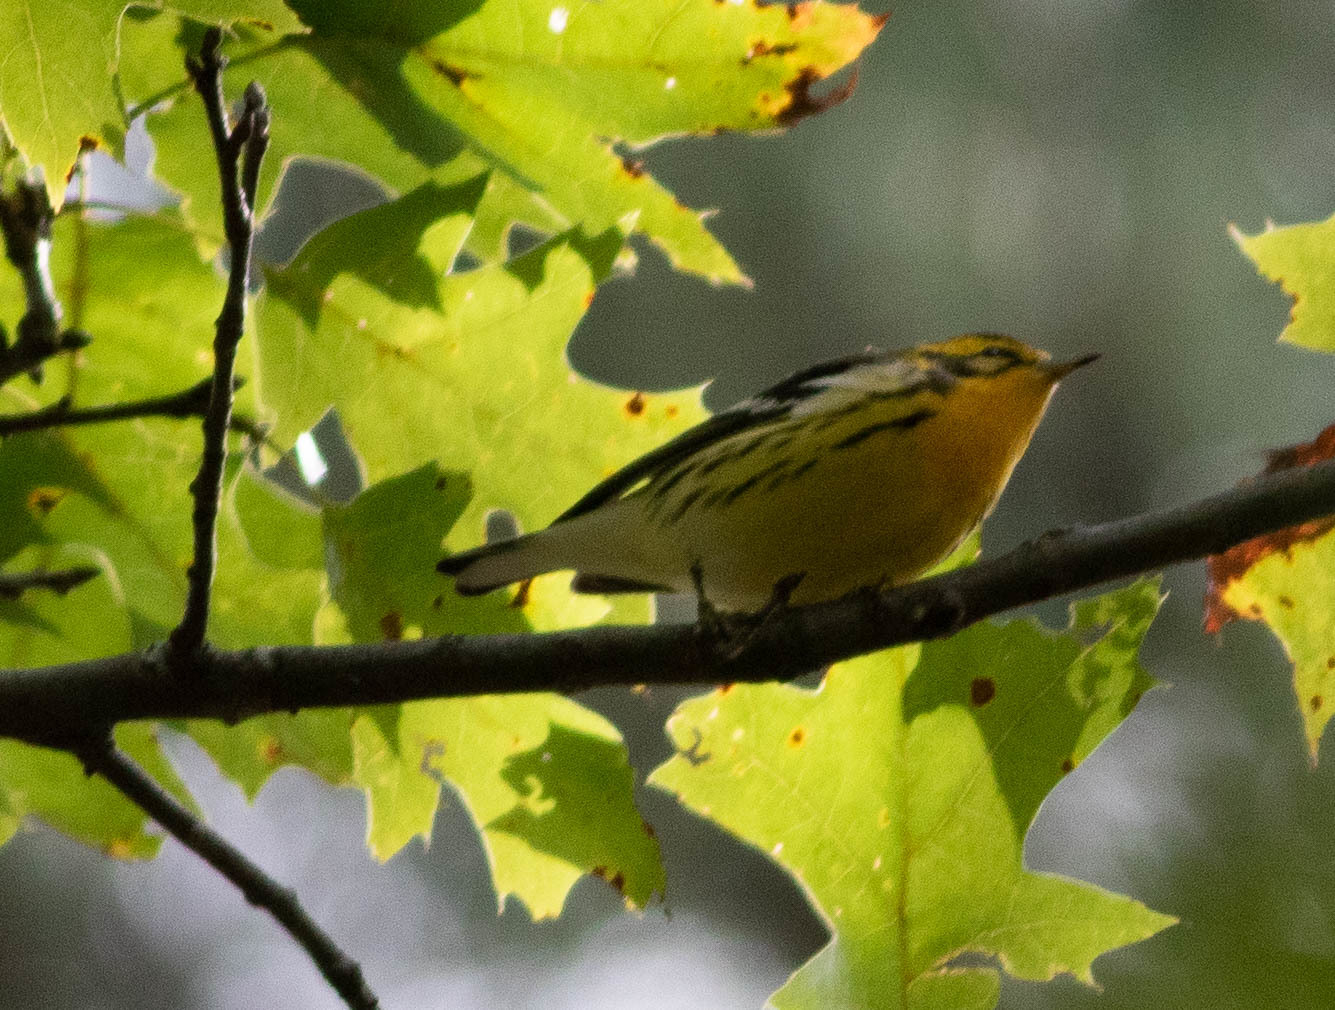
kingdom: Animalia
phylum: Chordata
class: Aves
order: Passeriformes
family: Parulidae
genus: Setophaga
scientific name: Setophaga fusca
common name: Blackburnian warbler
